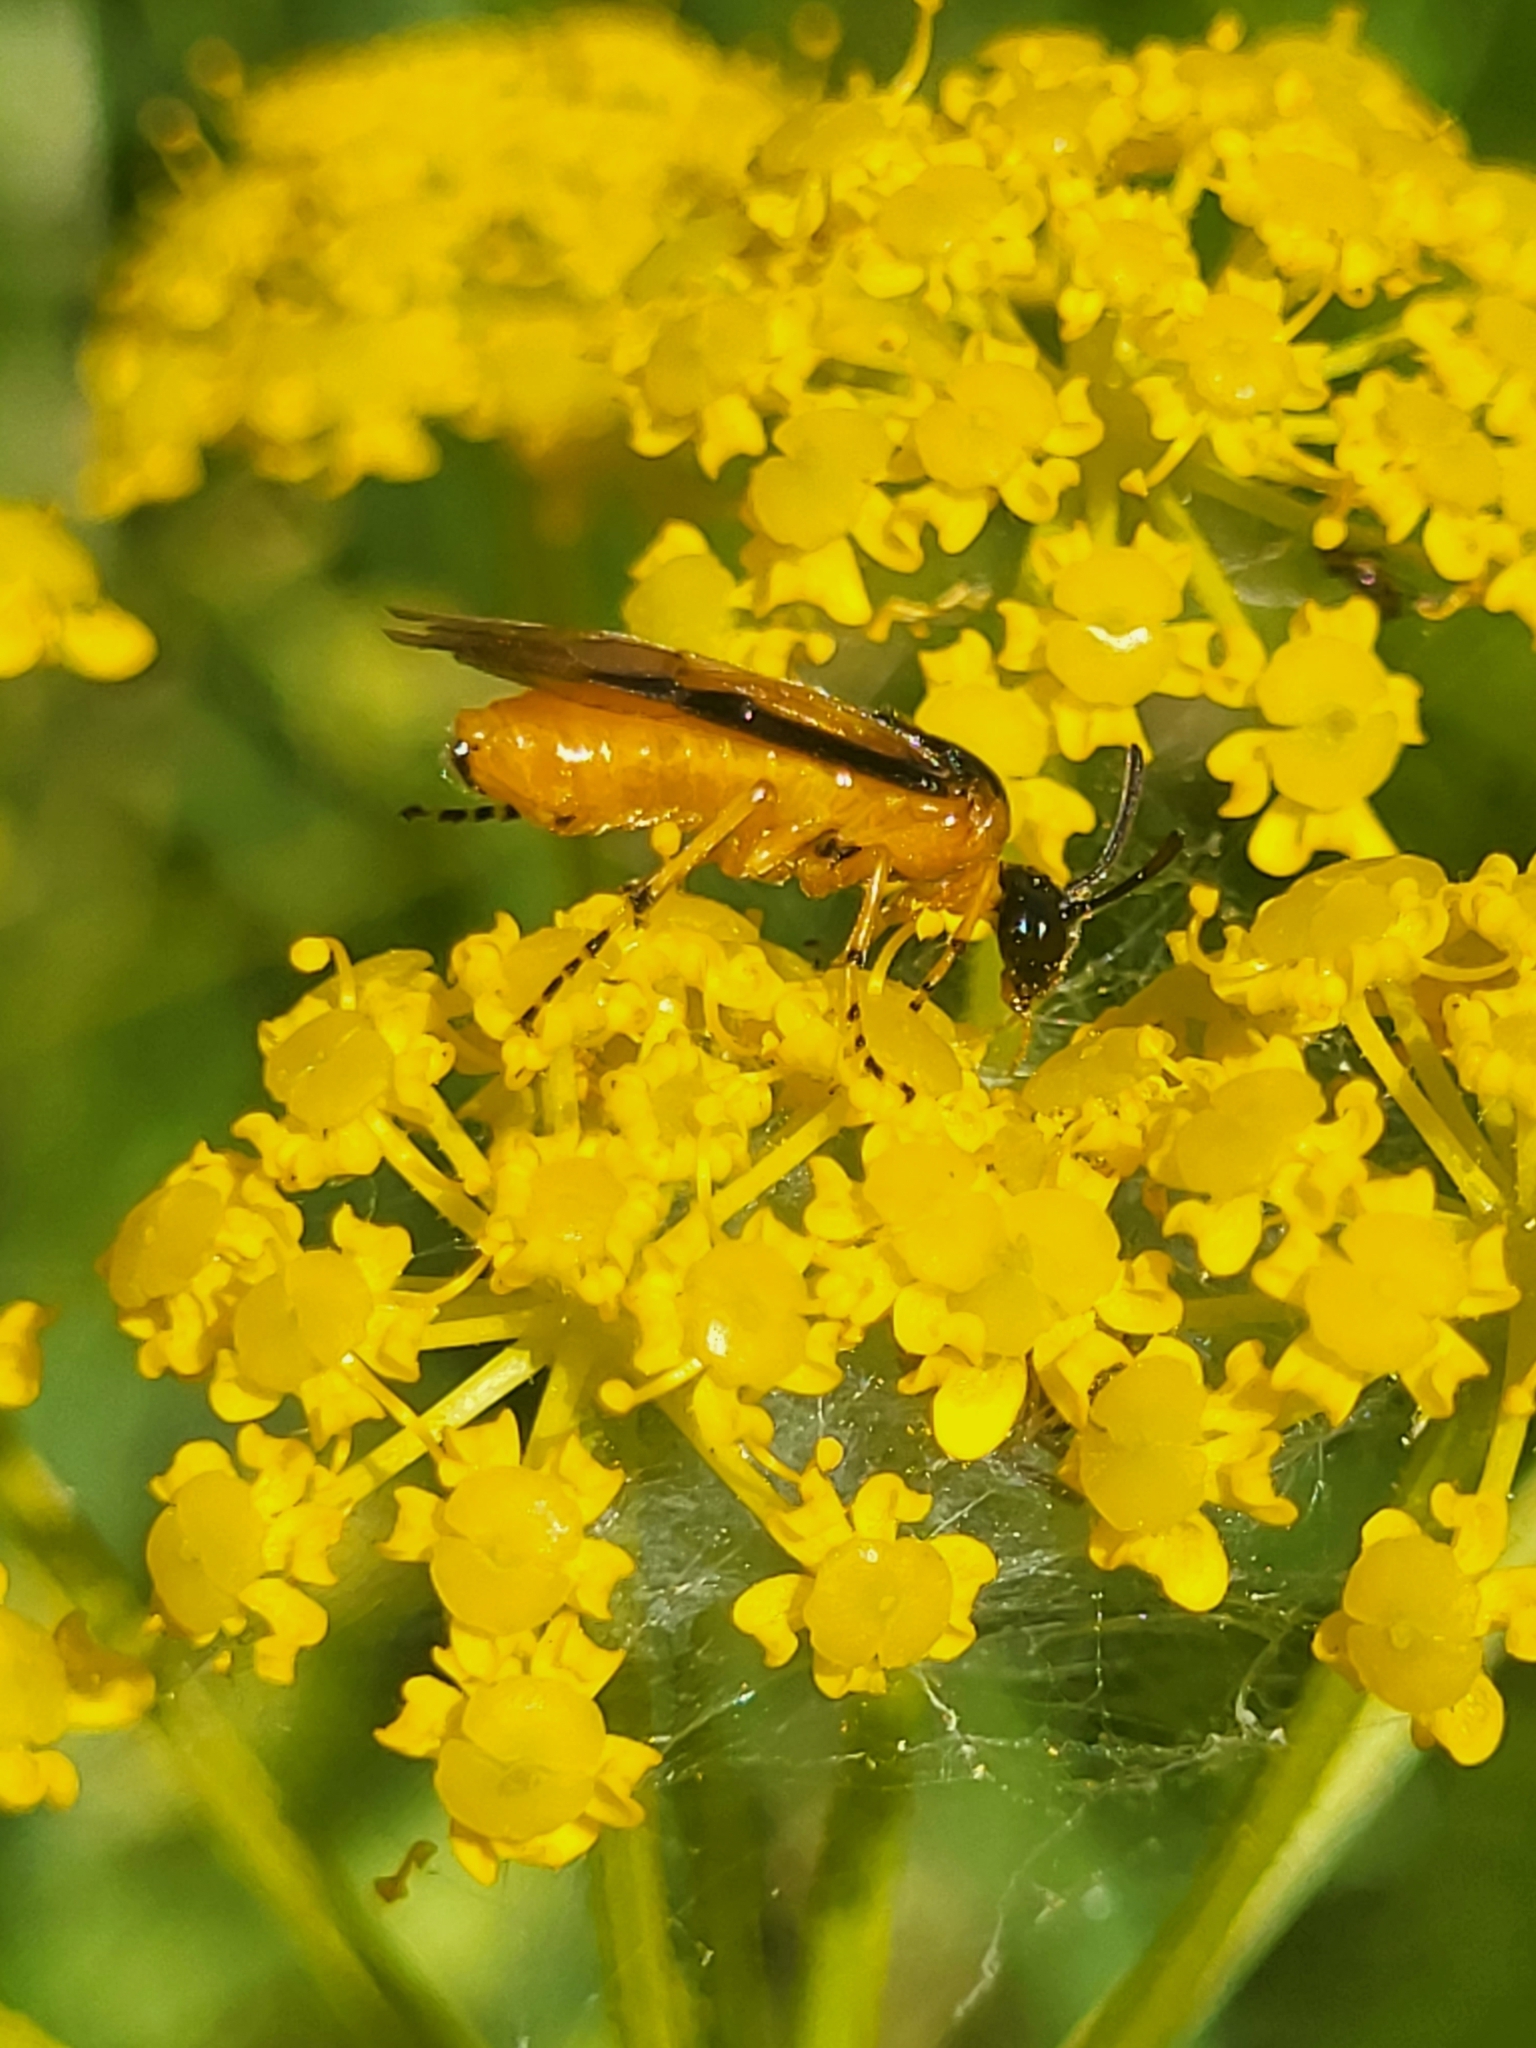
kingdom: Animalia
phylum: Arthropoda
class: Insecta
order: Hymenoptera
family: Argidae
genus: Arge
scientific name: Arge ochropus
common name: Argid sawfly
